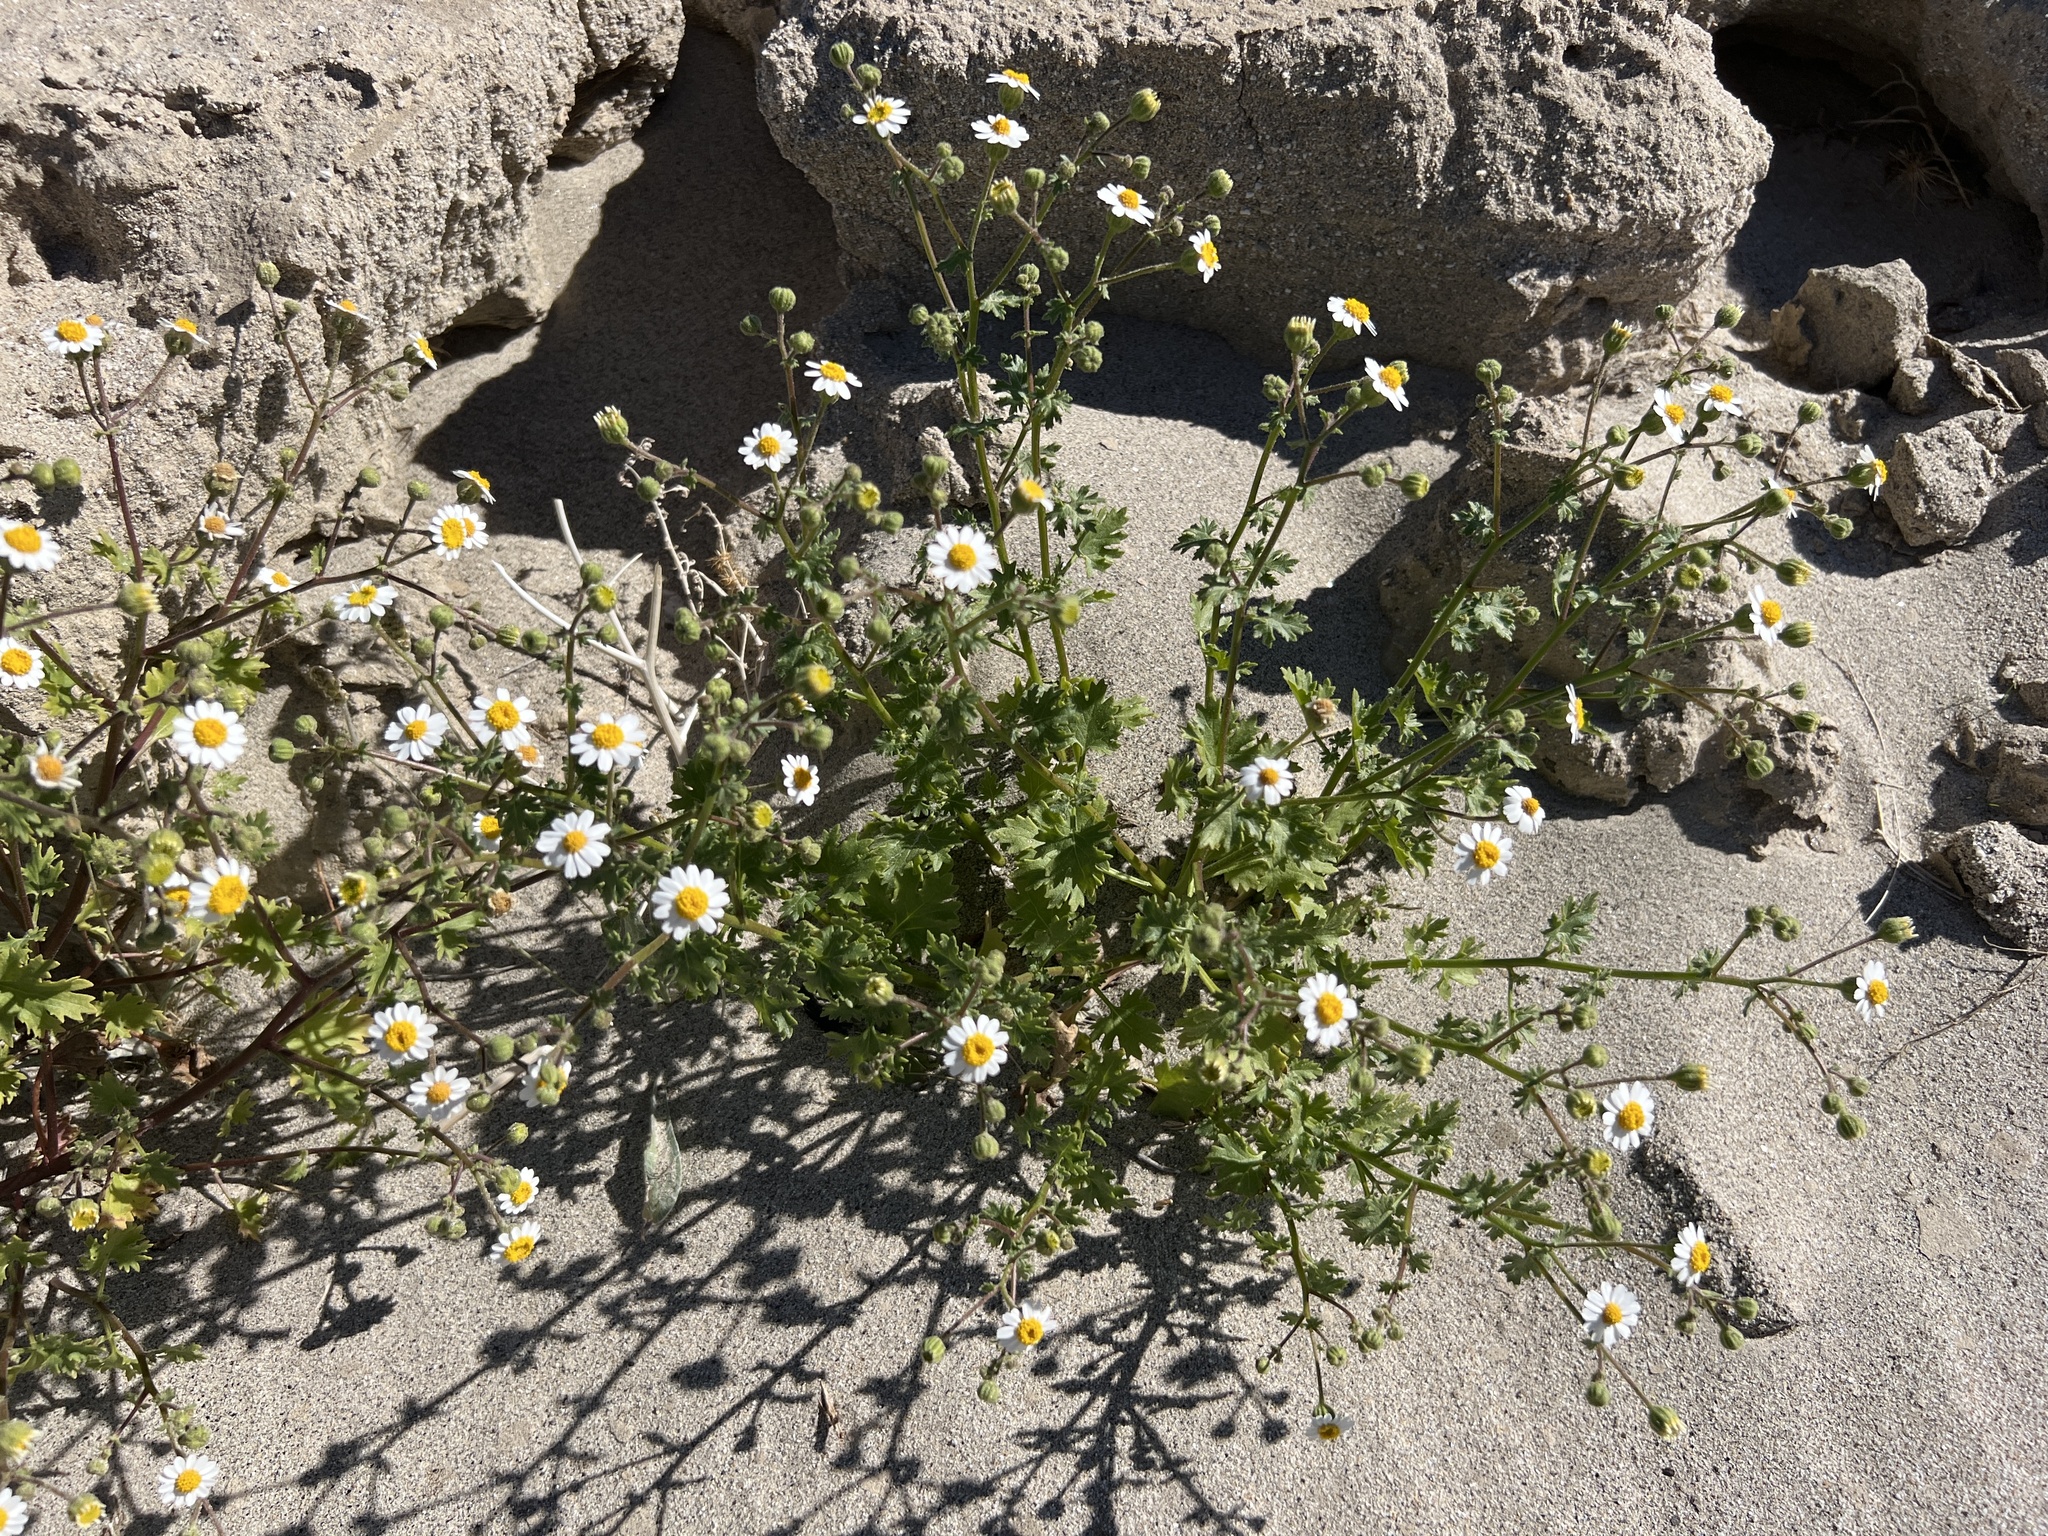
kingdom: Plantae
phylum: Tracheophyta
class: Magnoliopsida
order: Asterales
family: Asteraceae
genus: Laphamia
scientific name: Laphamia emoryi
